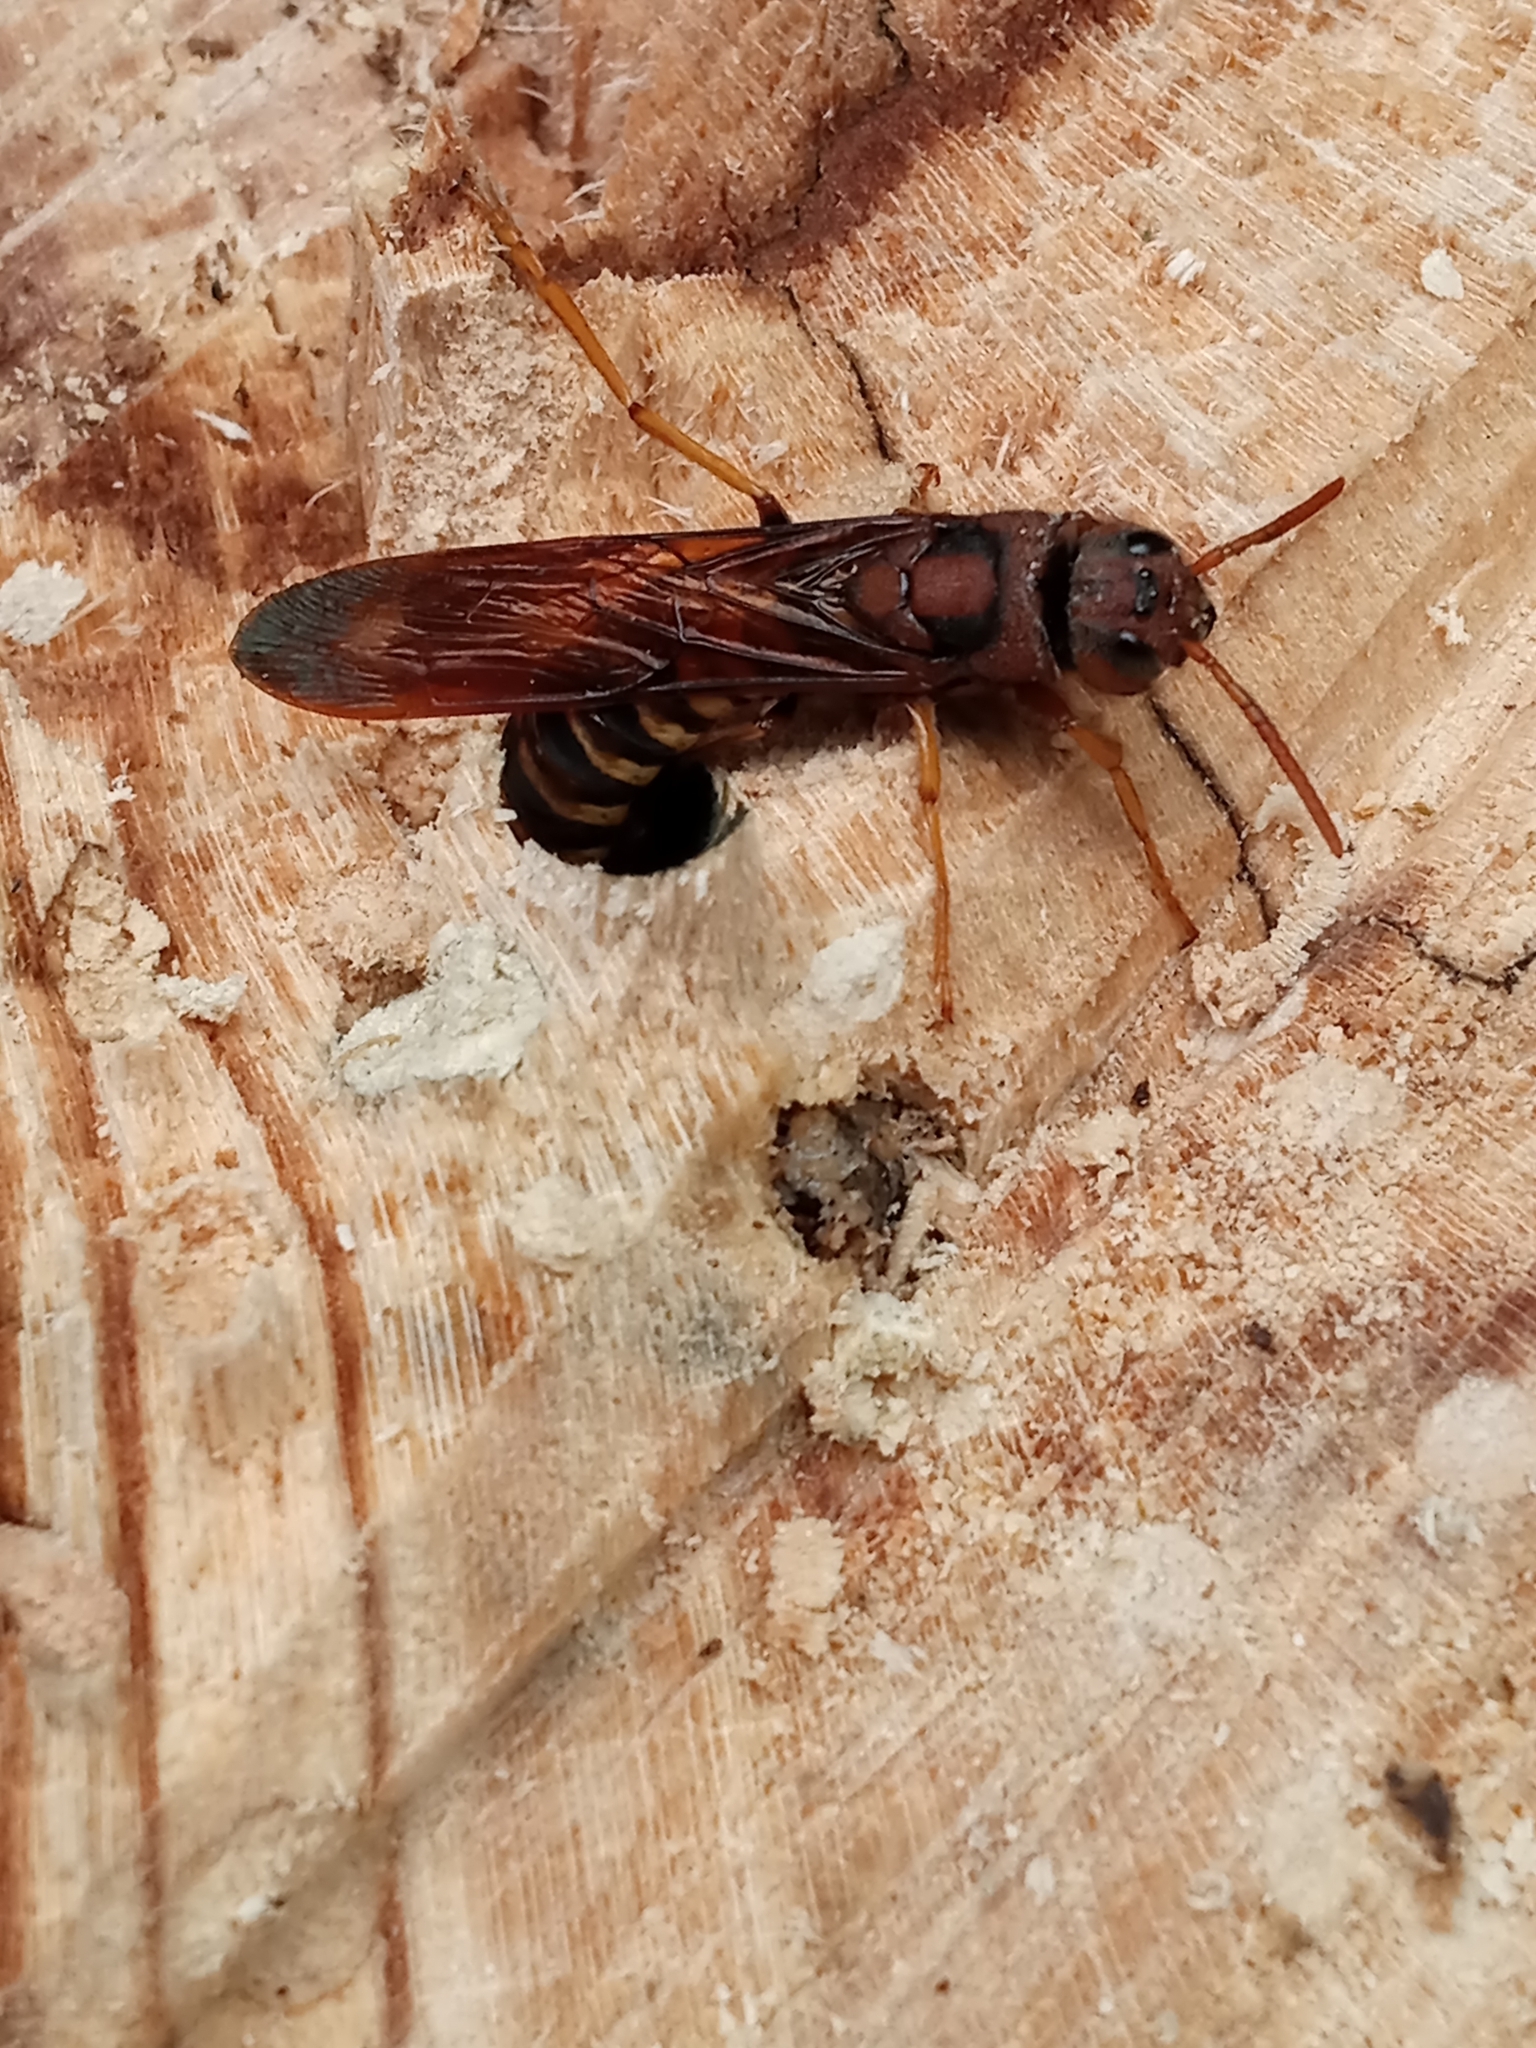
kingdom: Animalia
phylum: Arthropoda
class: Insecta
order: Hymenoptera
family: Siricidae
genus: Tremex
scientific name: Tremex columba
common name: Wasp
